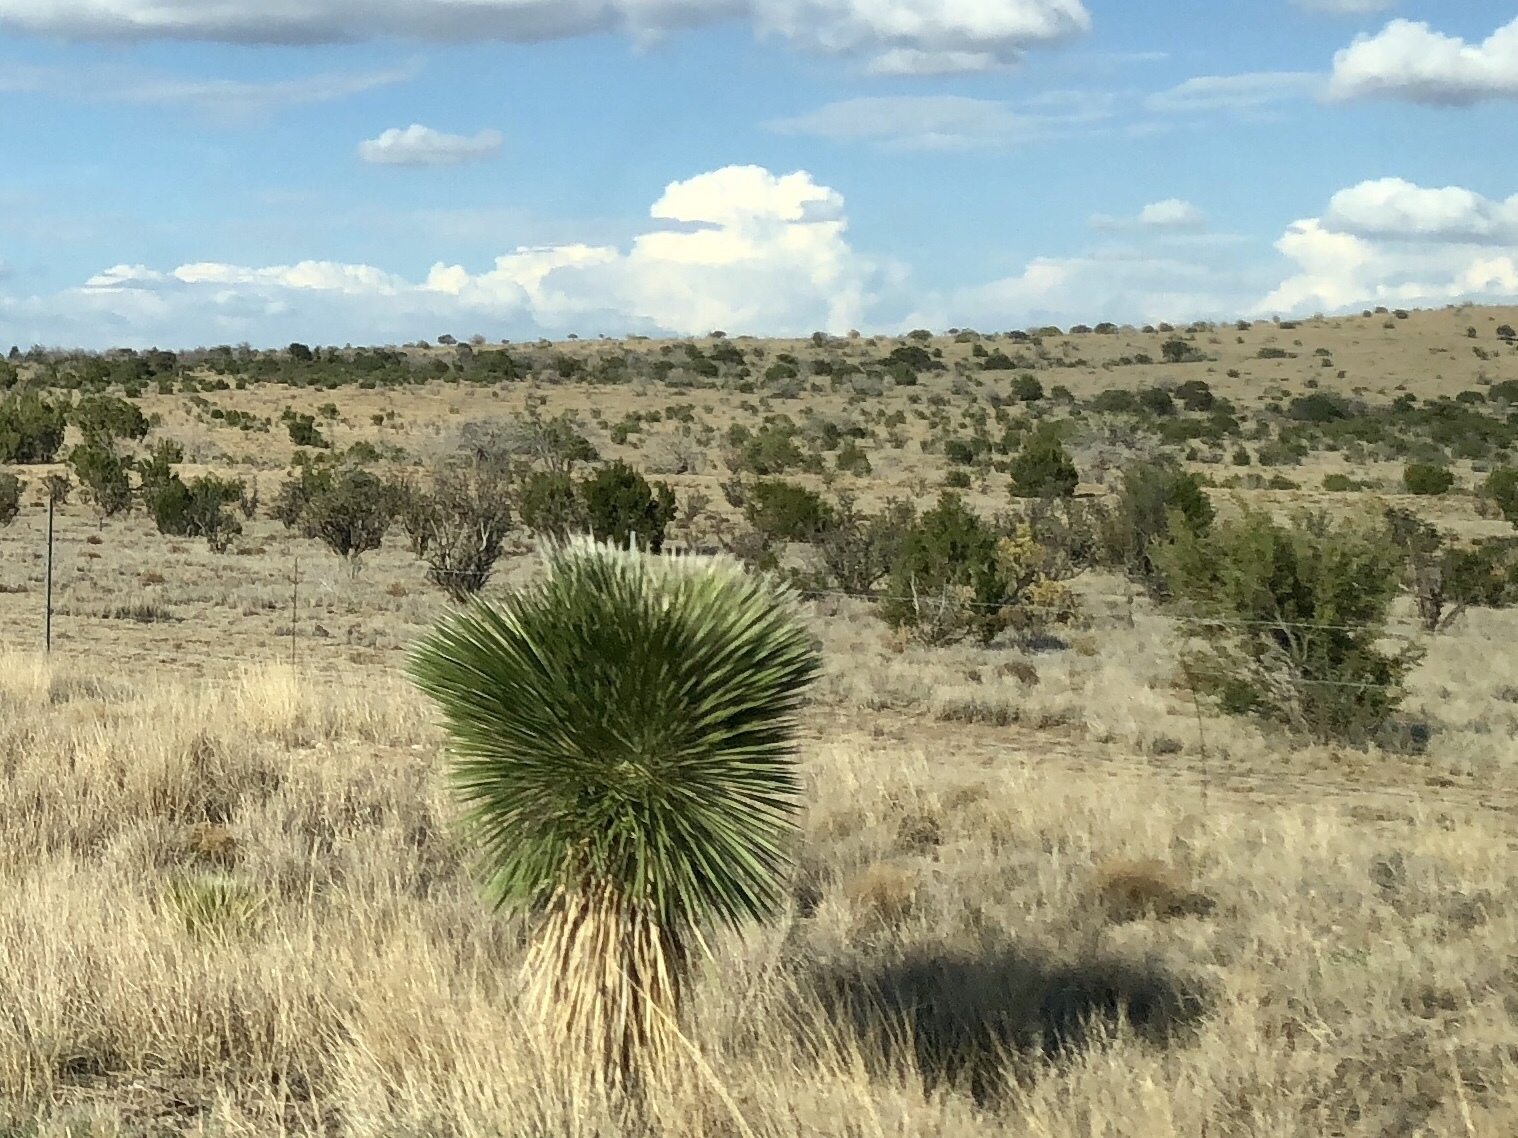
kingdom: Plantae
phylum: Tracheophyta
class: Liliopsida
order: Asparagales
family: Asparagaceae
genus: Yucca
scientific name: Yucca elata
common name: Palmella
